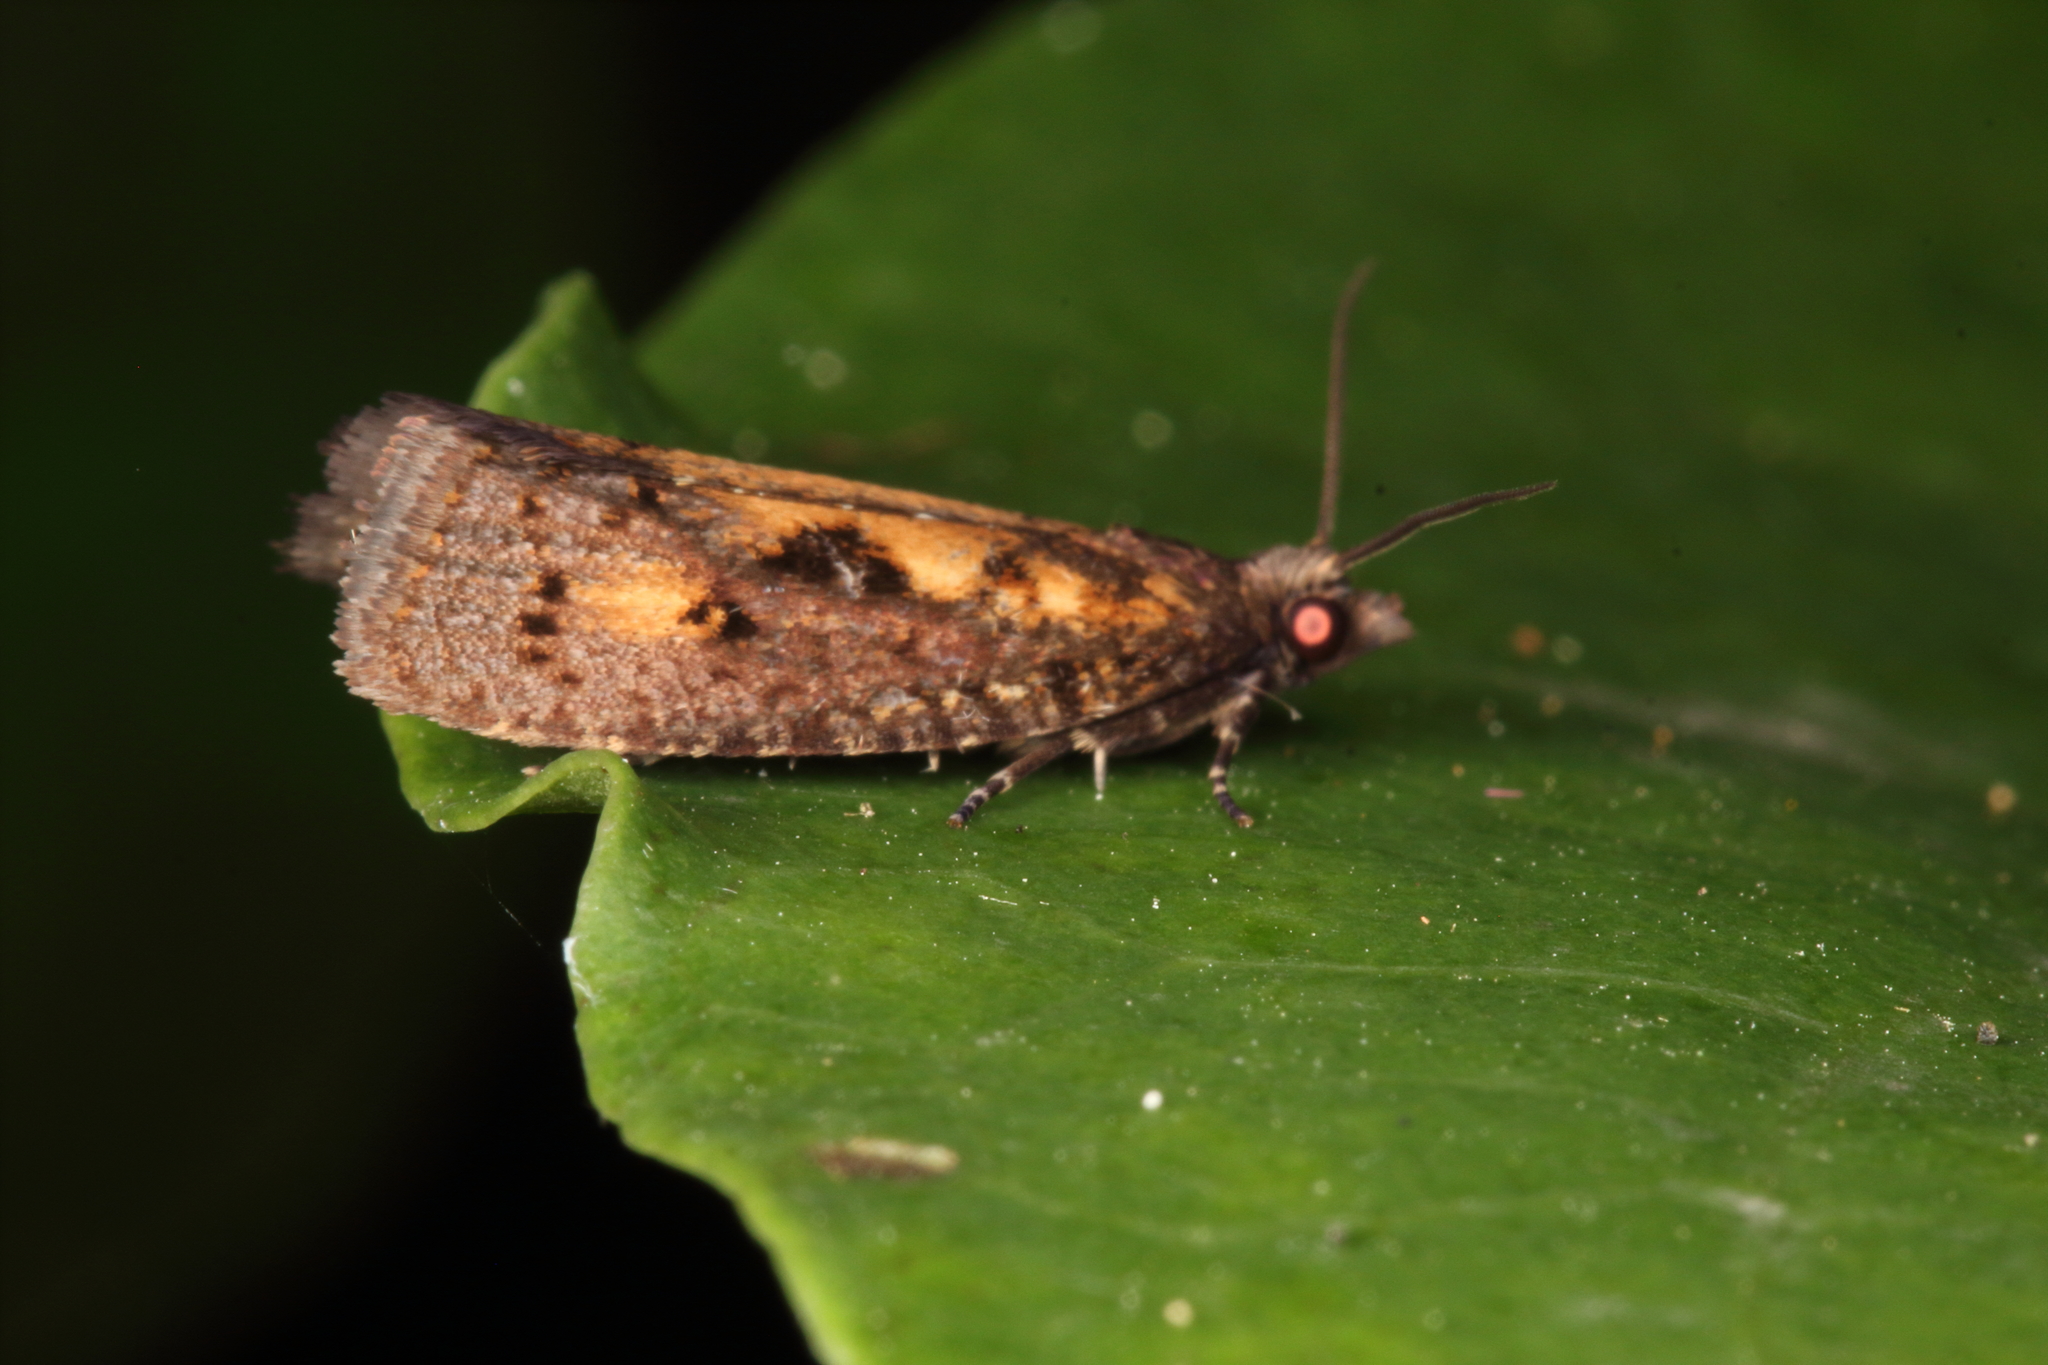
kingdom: Animalia
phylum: Arthropoda
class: Insecta
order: Lepidoptera
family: Tortricidae
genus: Cryptaspasma
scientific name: Cryptaspasma querula
